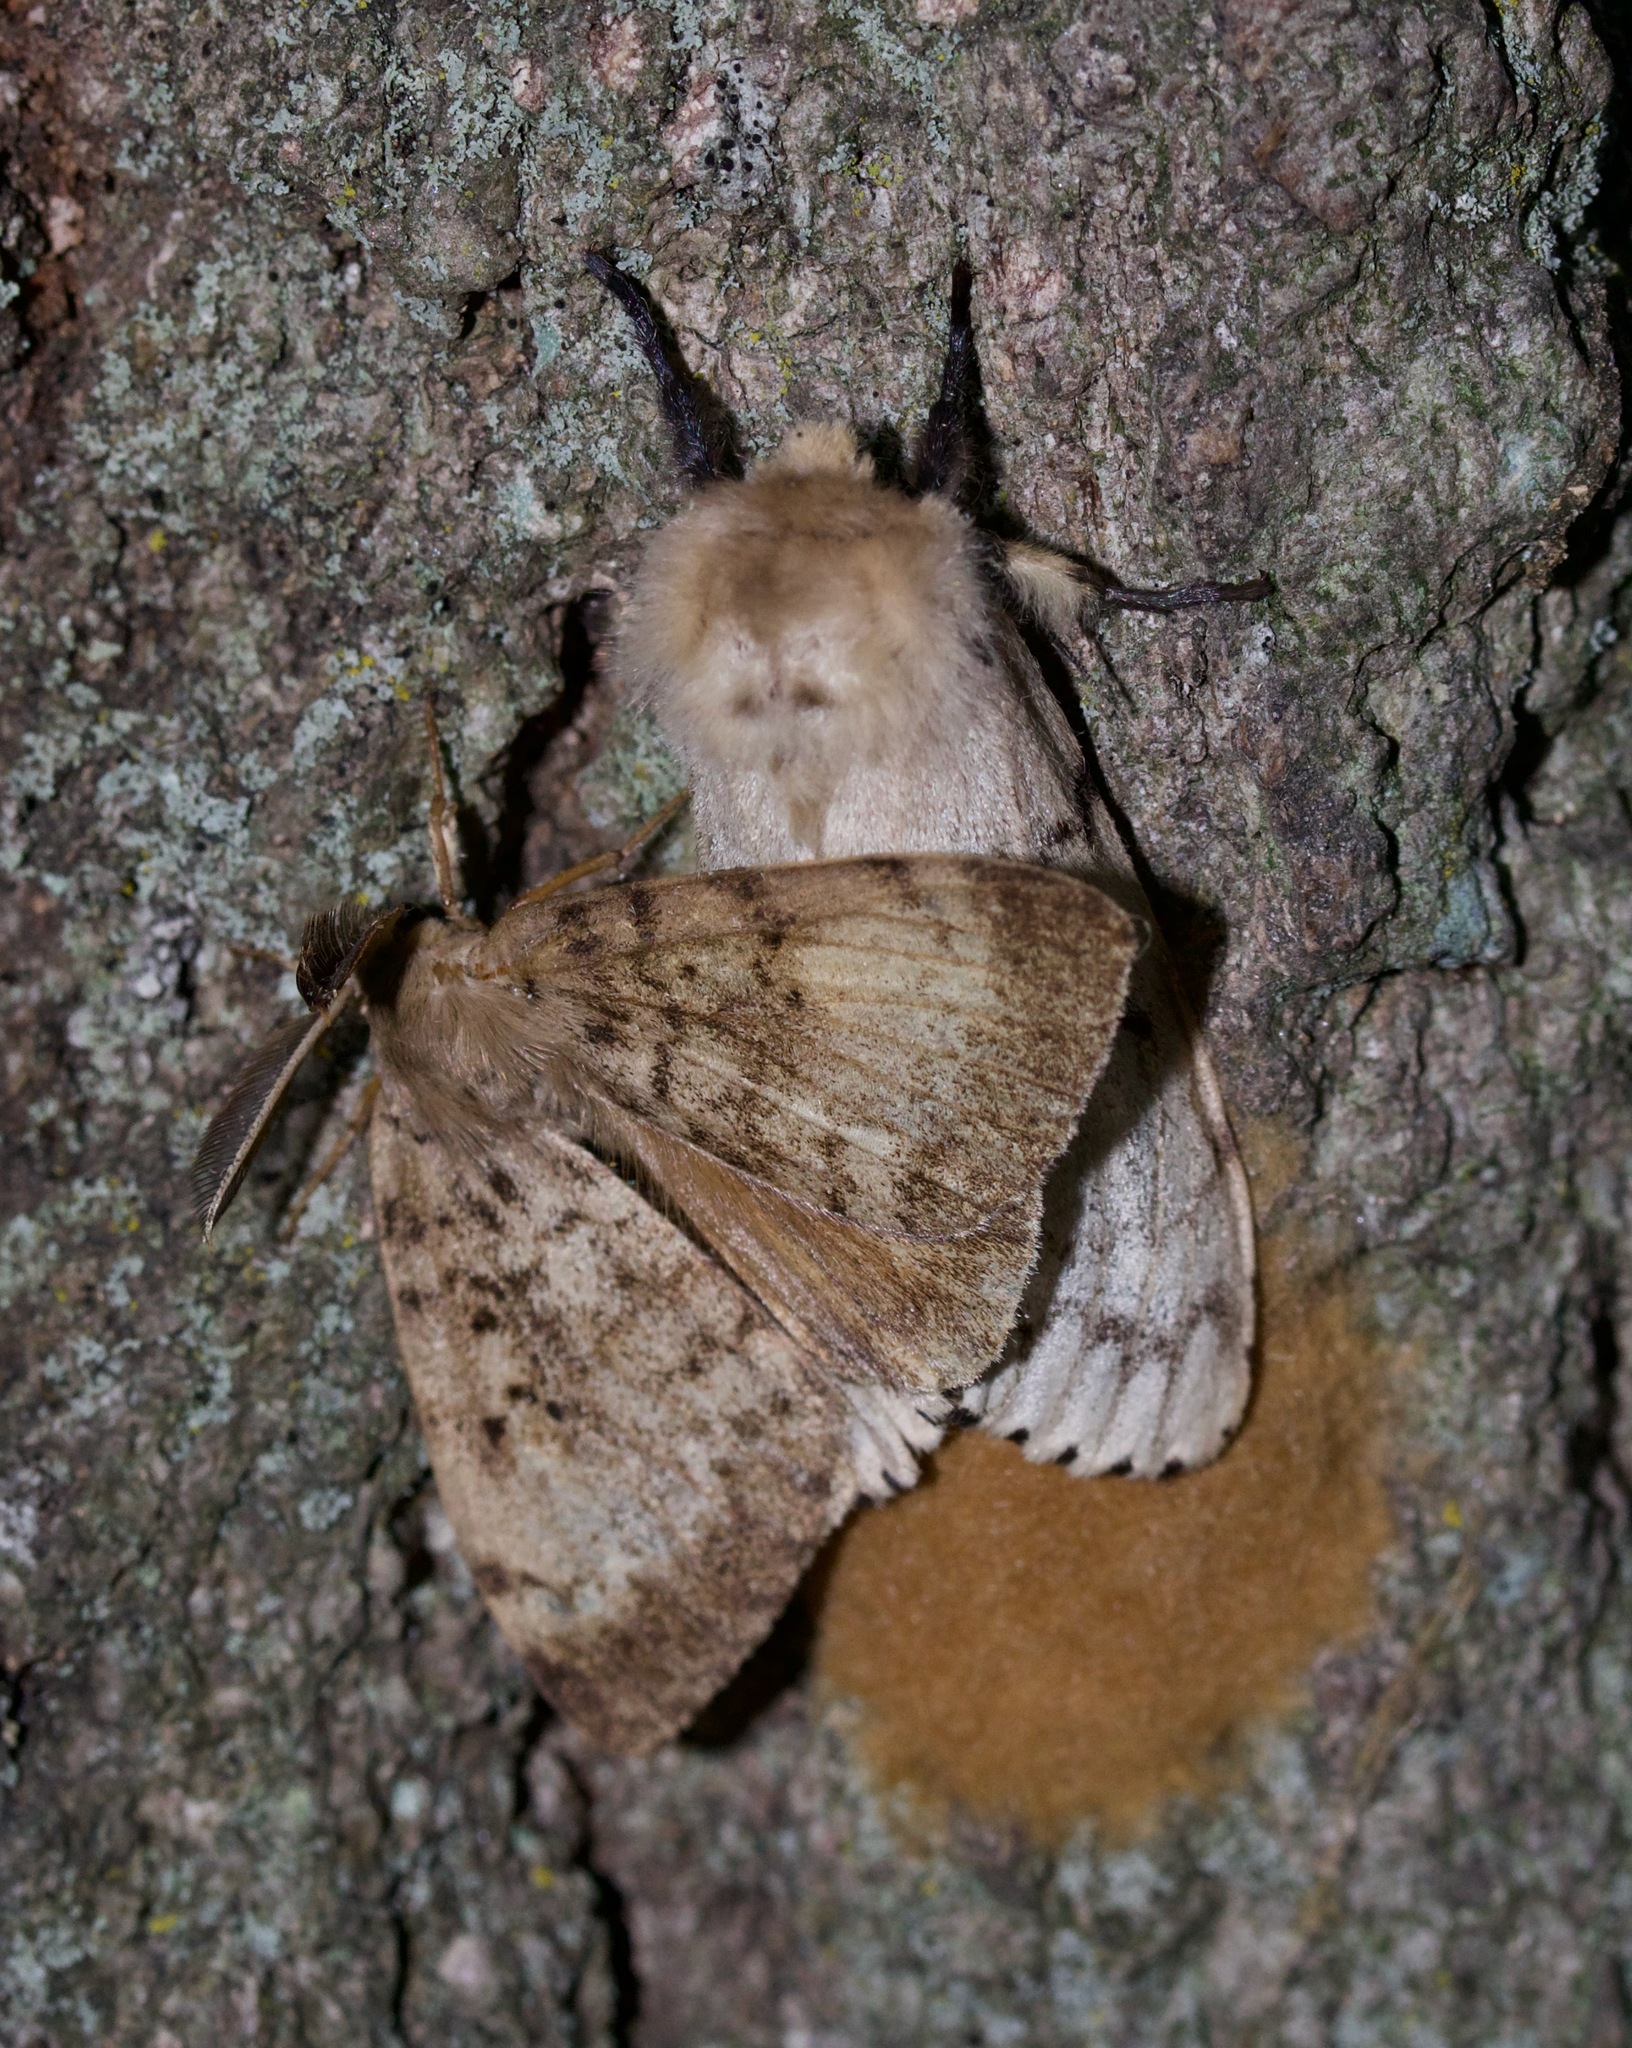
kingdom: Animalia
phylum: Arthropoda
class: Insecta
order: Lepidoptera
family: Erebidae
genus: Lymantria
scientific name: Lymantria dispar
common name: Gypsy moth
